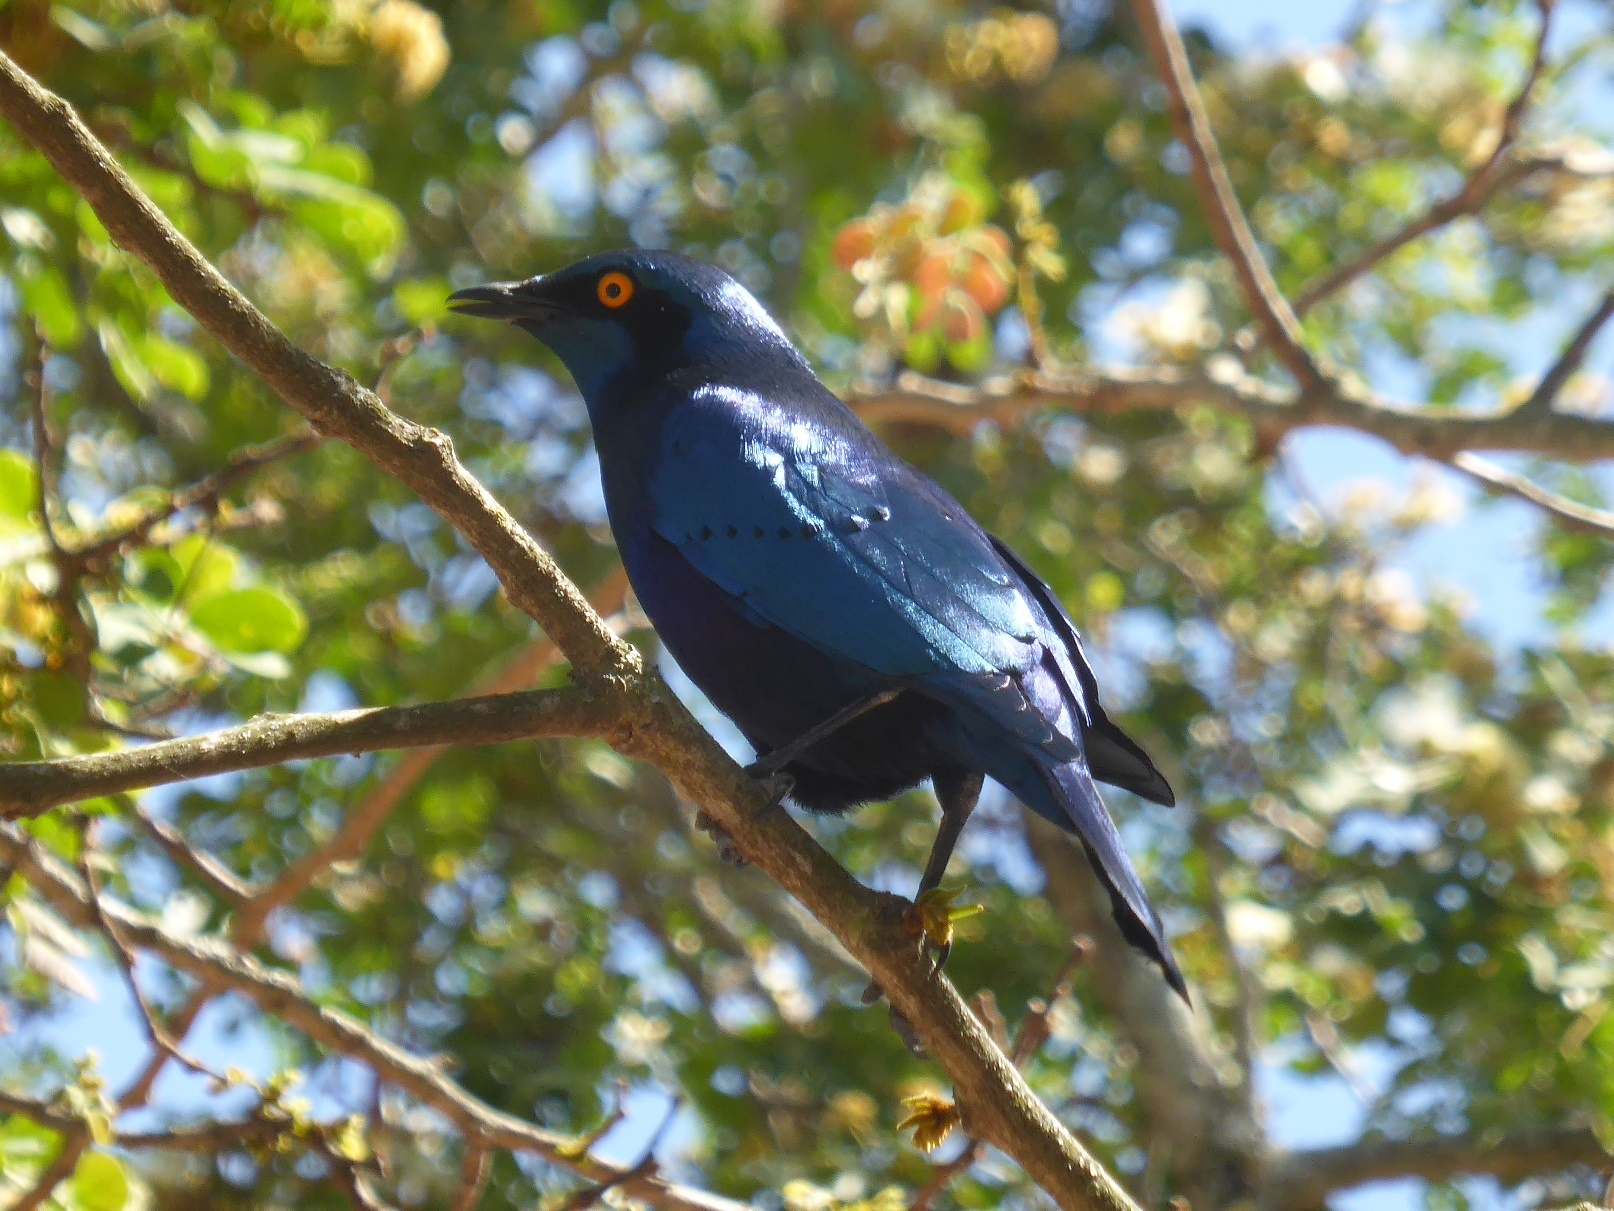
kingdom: Animalia
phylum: Chordata
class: Aves
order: Passeriformes
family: Sturnidae
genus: Lamprotornis
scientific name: Lamprotornis chalybaeus
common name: Greater blue-eared starling
